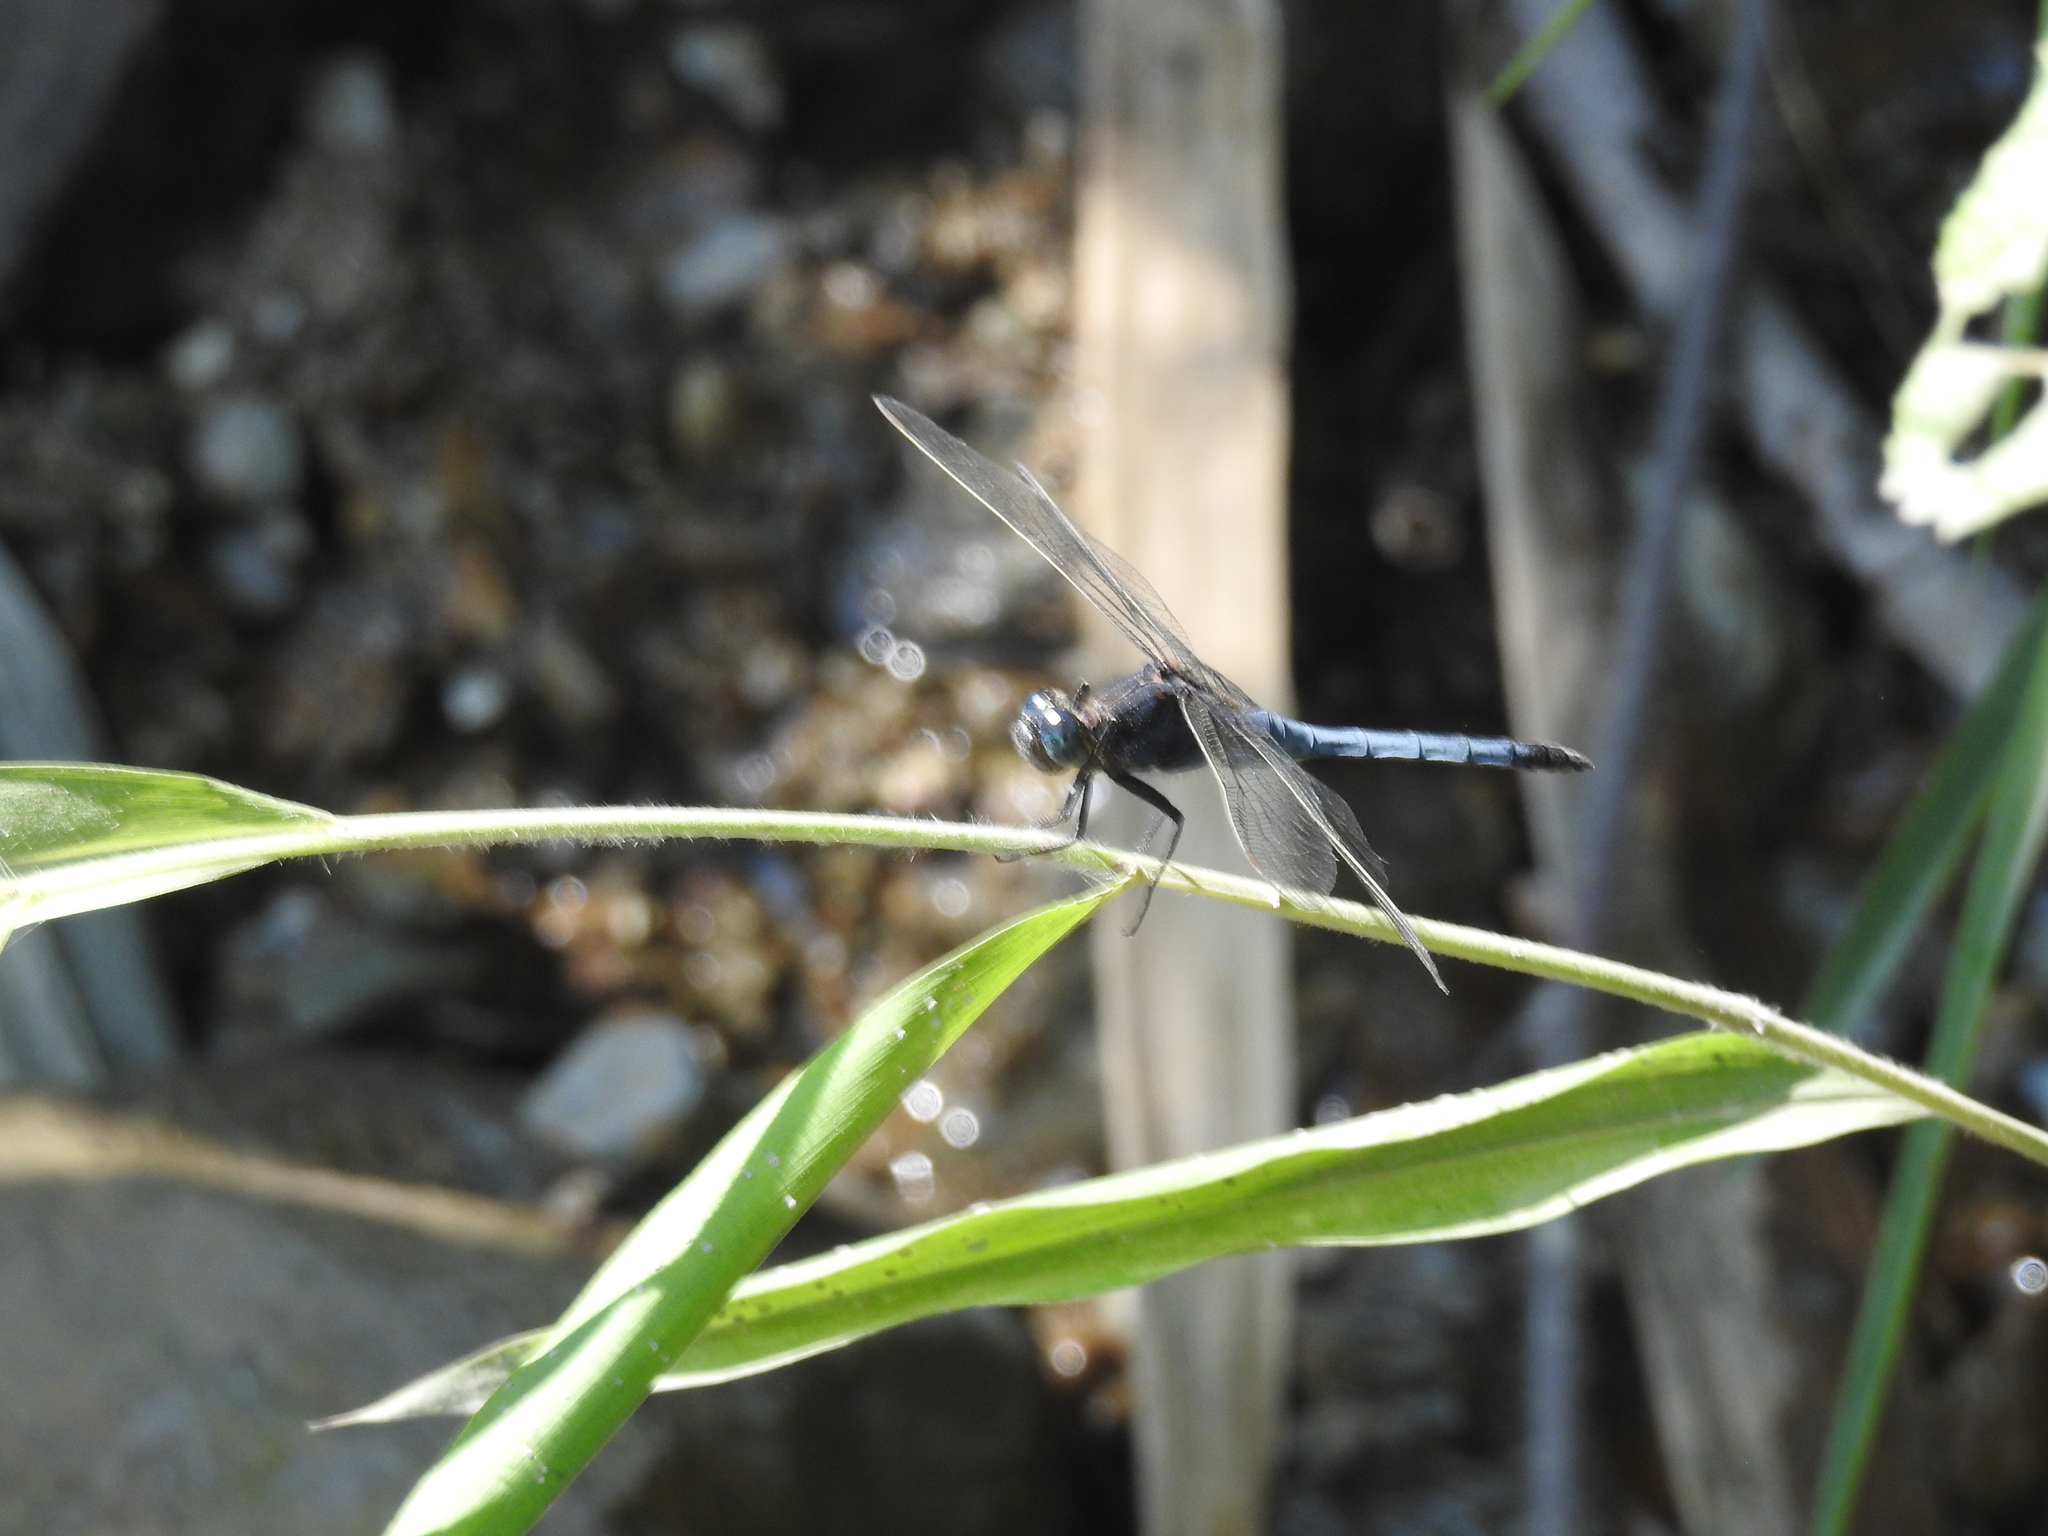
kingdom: Animalia
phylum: Arthropoda
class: Insecta
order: Odonata
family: Libellulidae
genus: Orthetrum
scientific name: Orthetrum glaucum
